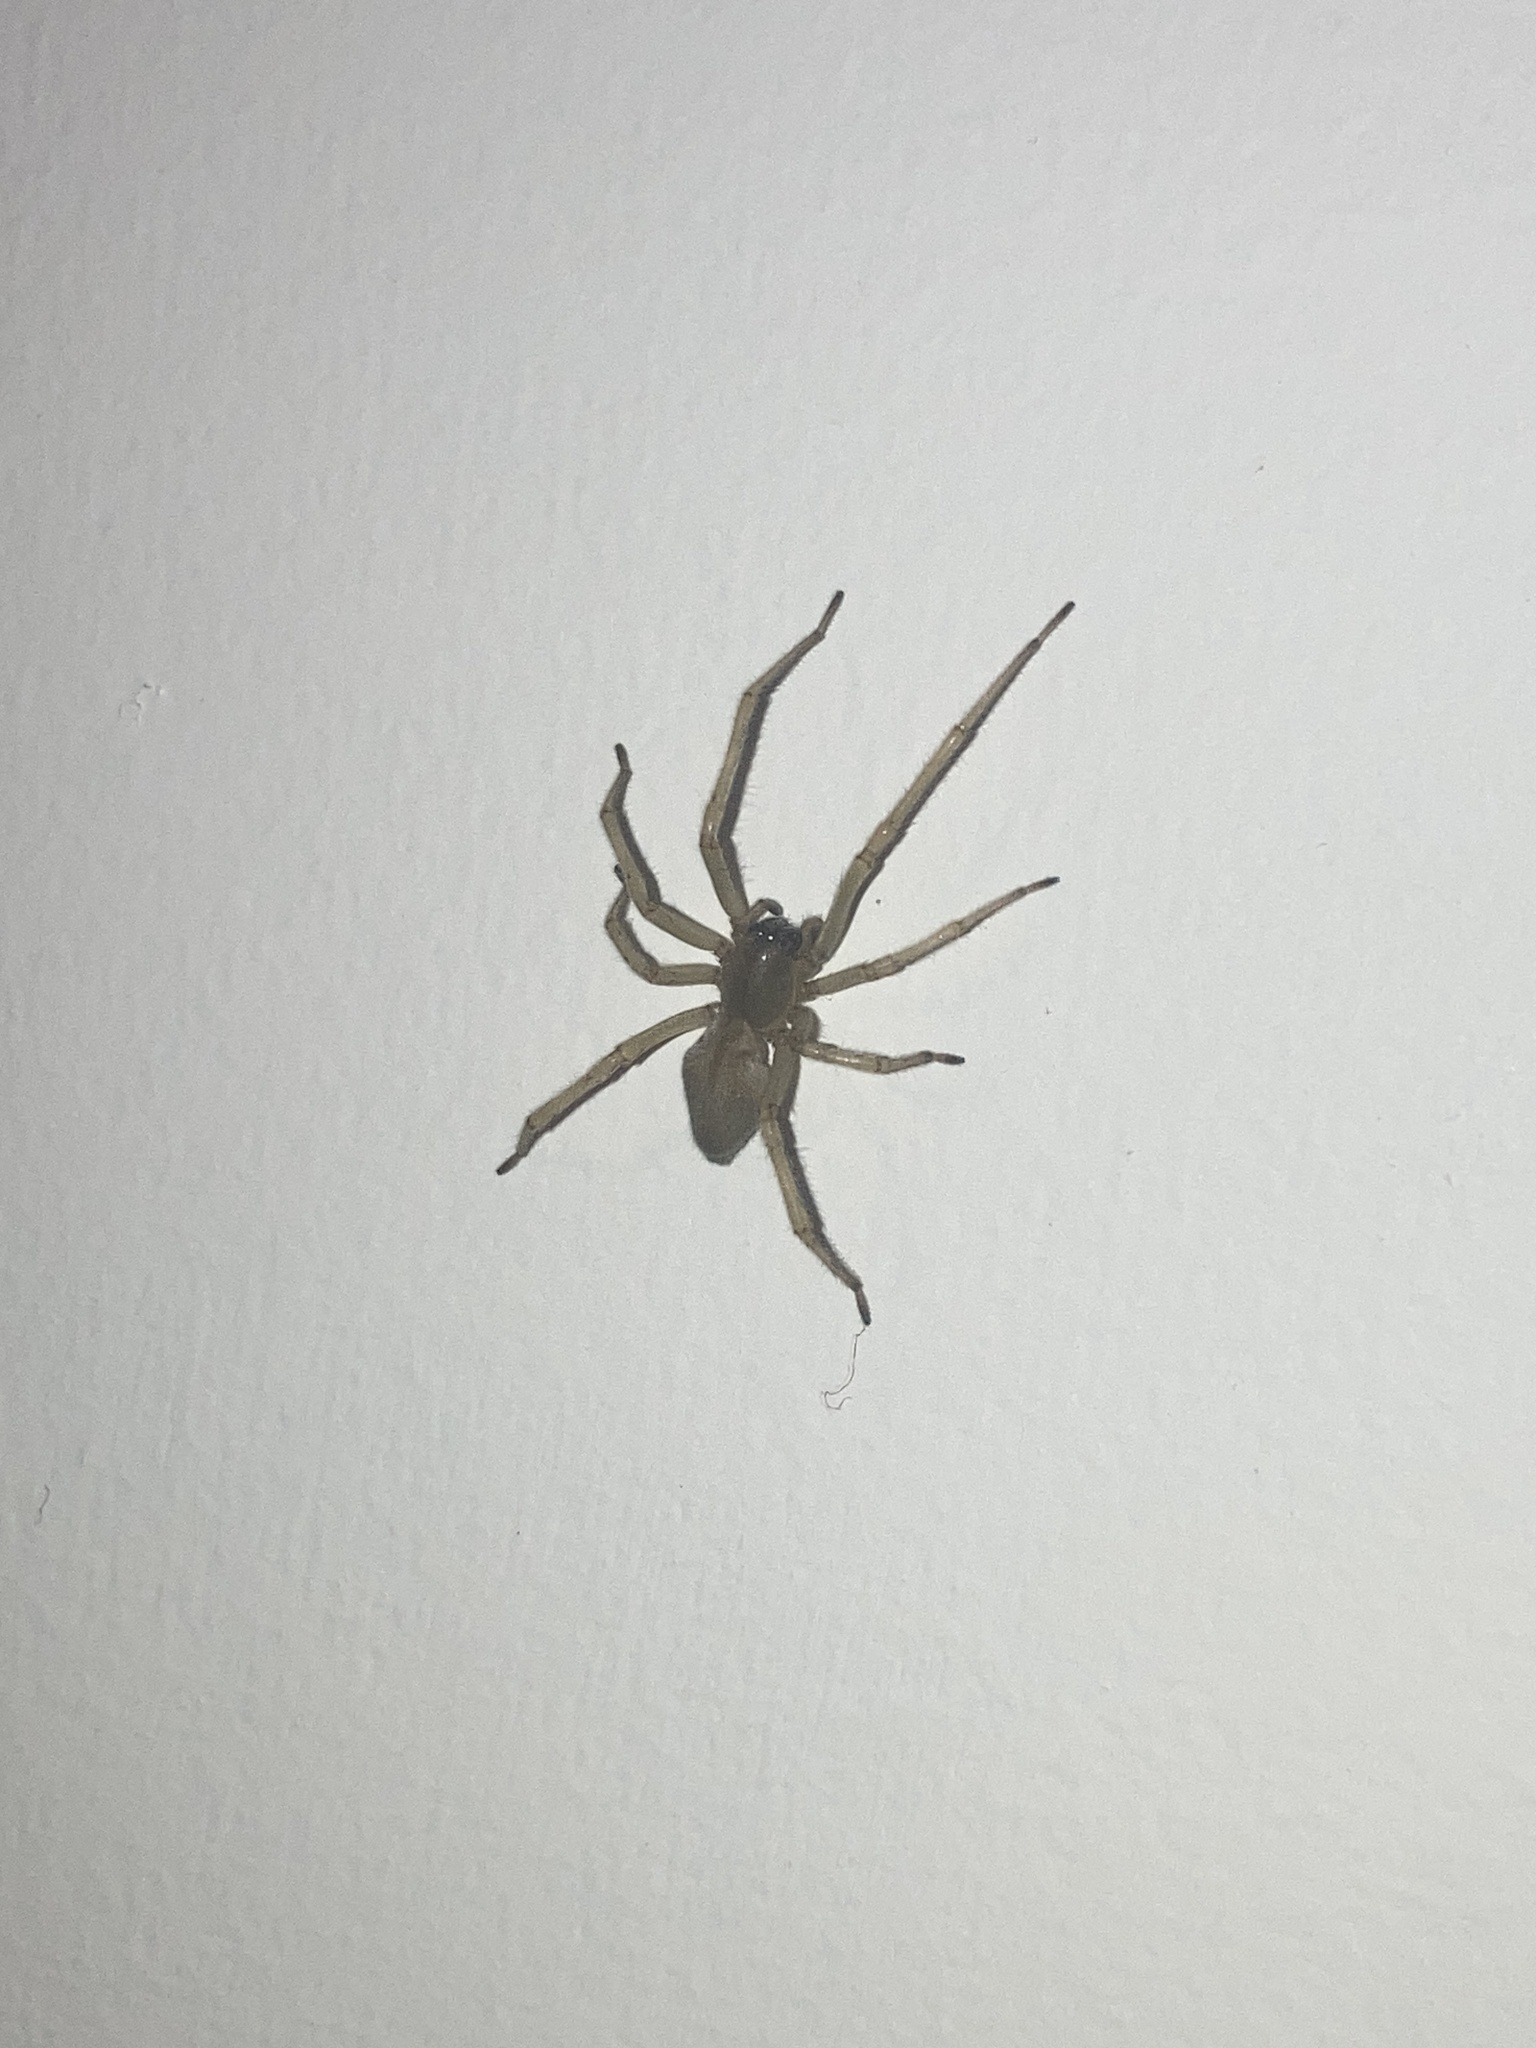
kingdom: Animalia
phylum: Arthropoda
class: Arachnida
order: Araneae
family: Cheiracanthiidae
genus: Cheiracanthium
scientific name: Cheiracanthium mildei
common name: Northern yellow sac spider
